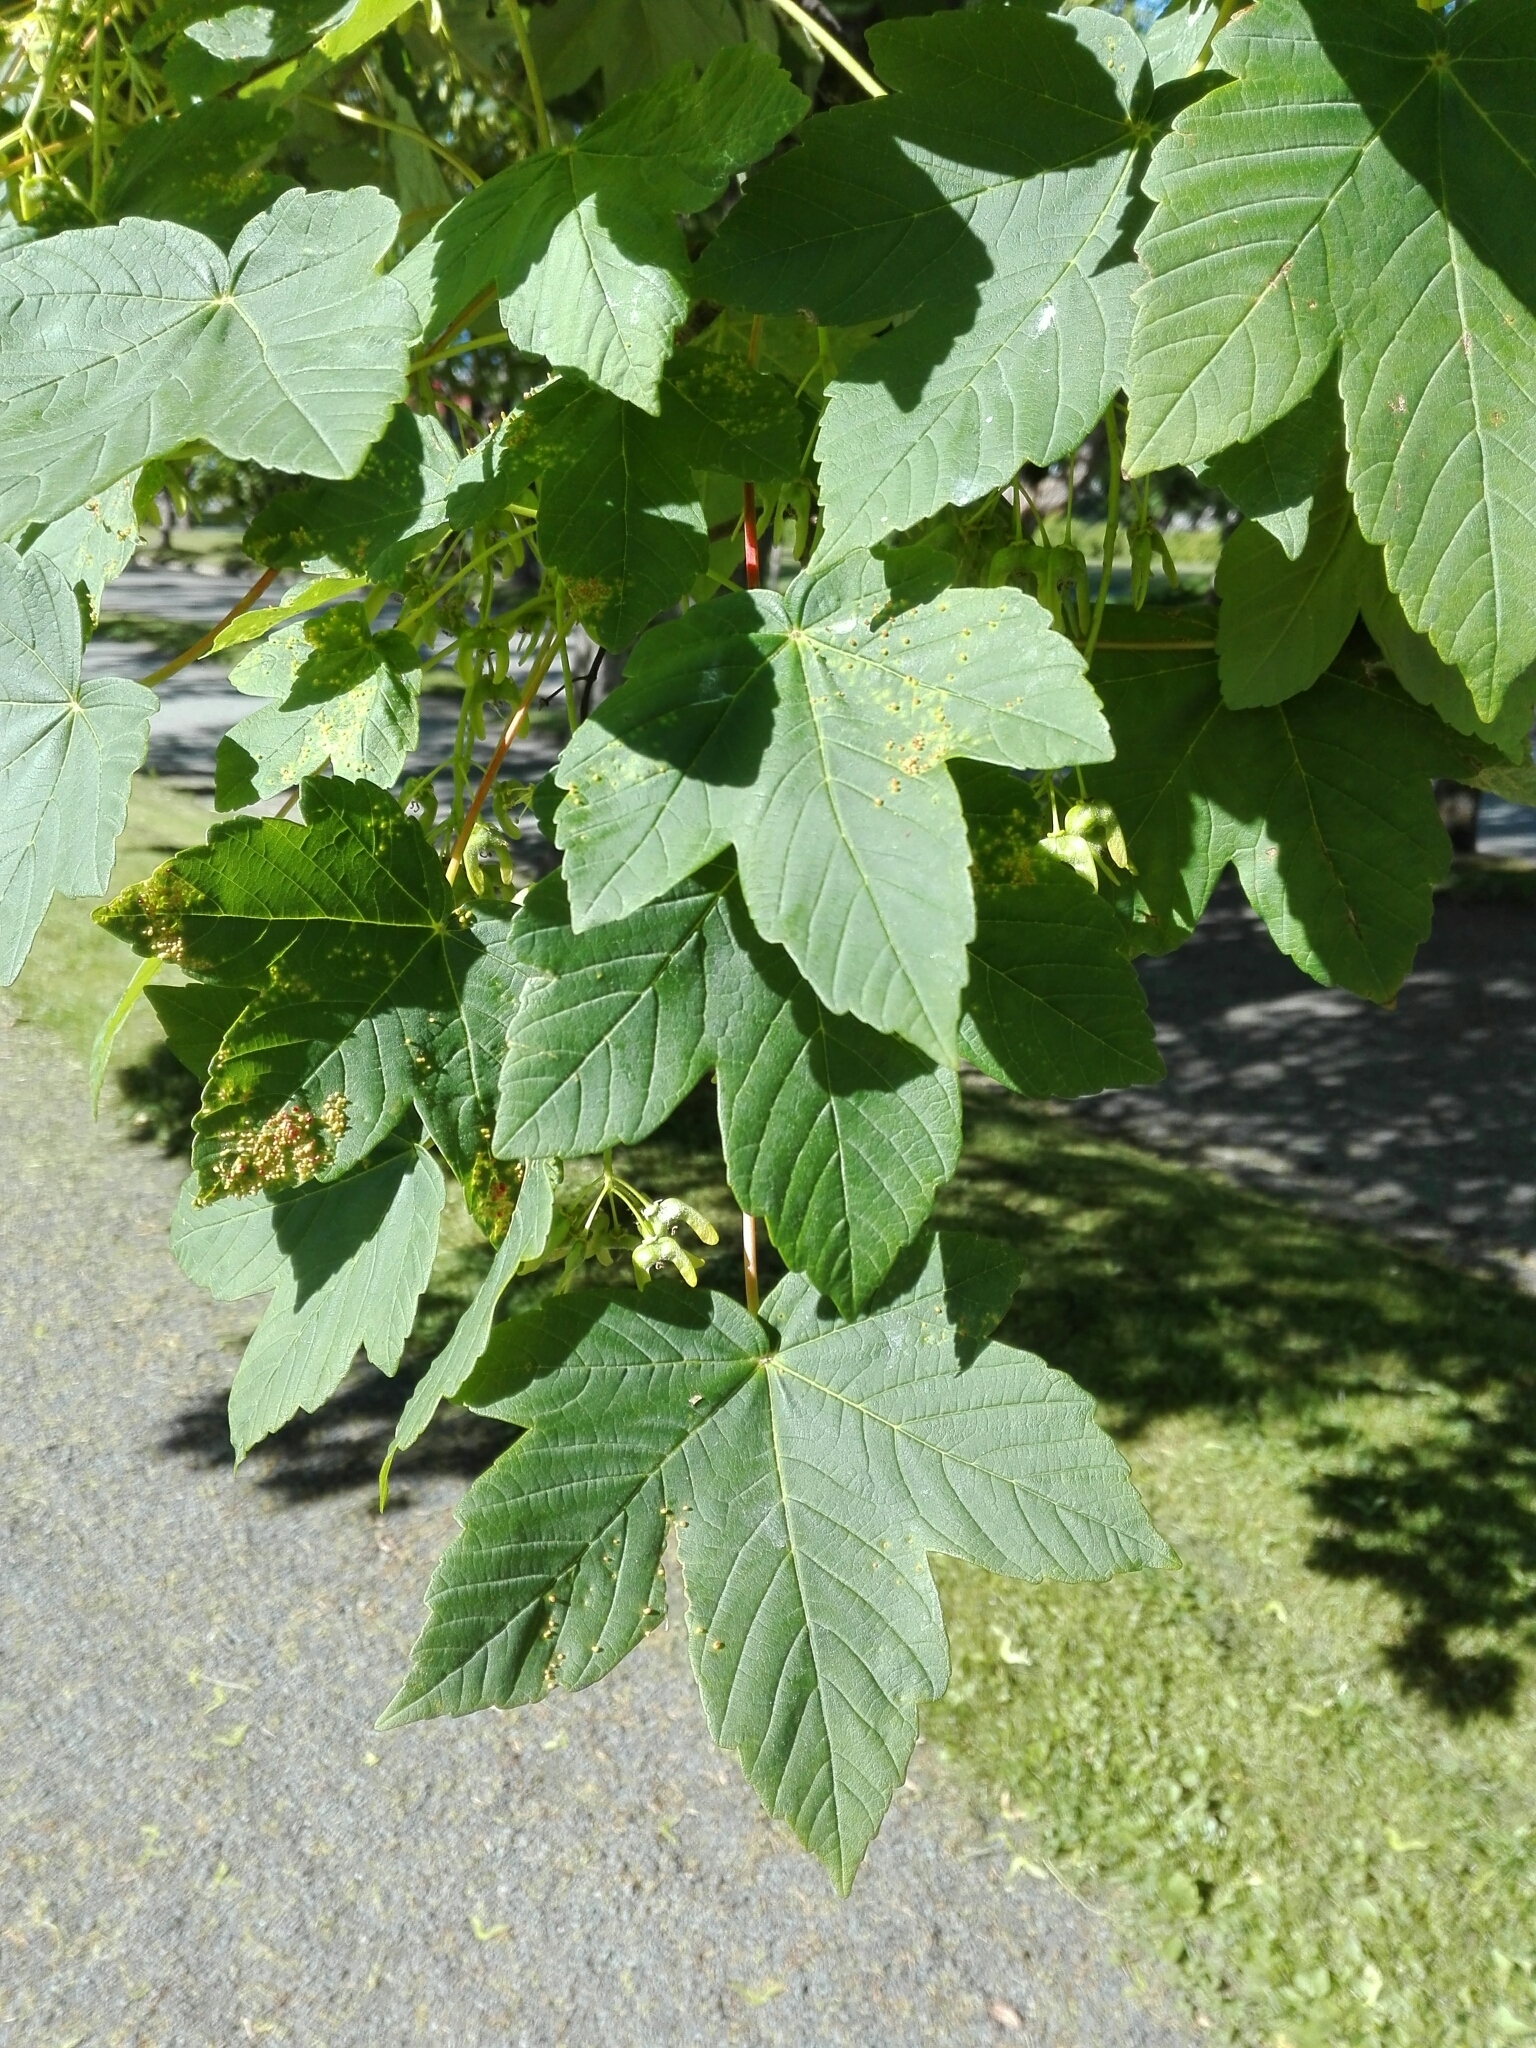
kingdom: Plantae
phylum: Tracheophyta
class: Magnoliopsida
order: Sapindales
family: Sapindaceae
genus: Acer
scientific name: Acer pseudoplatanus
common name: Sycamore
